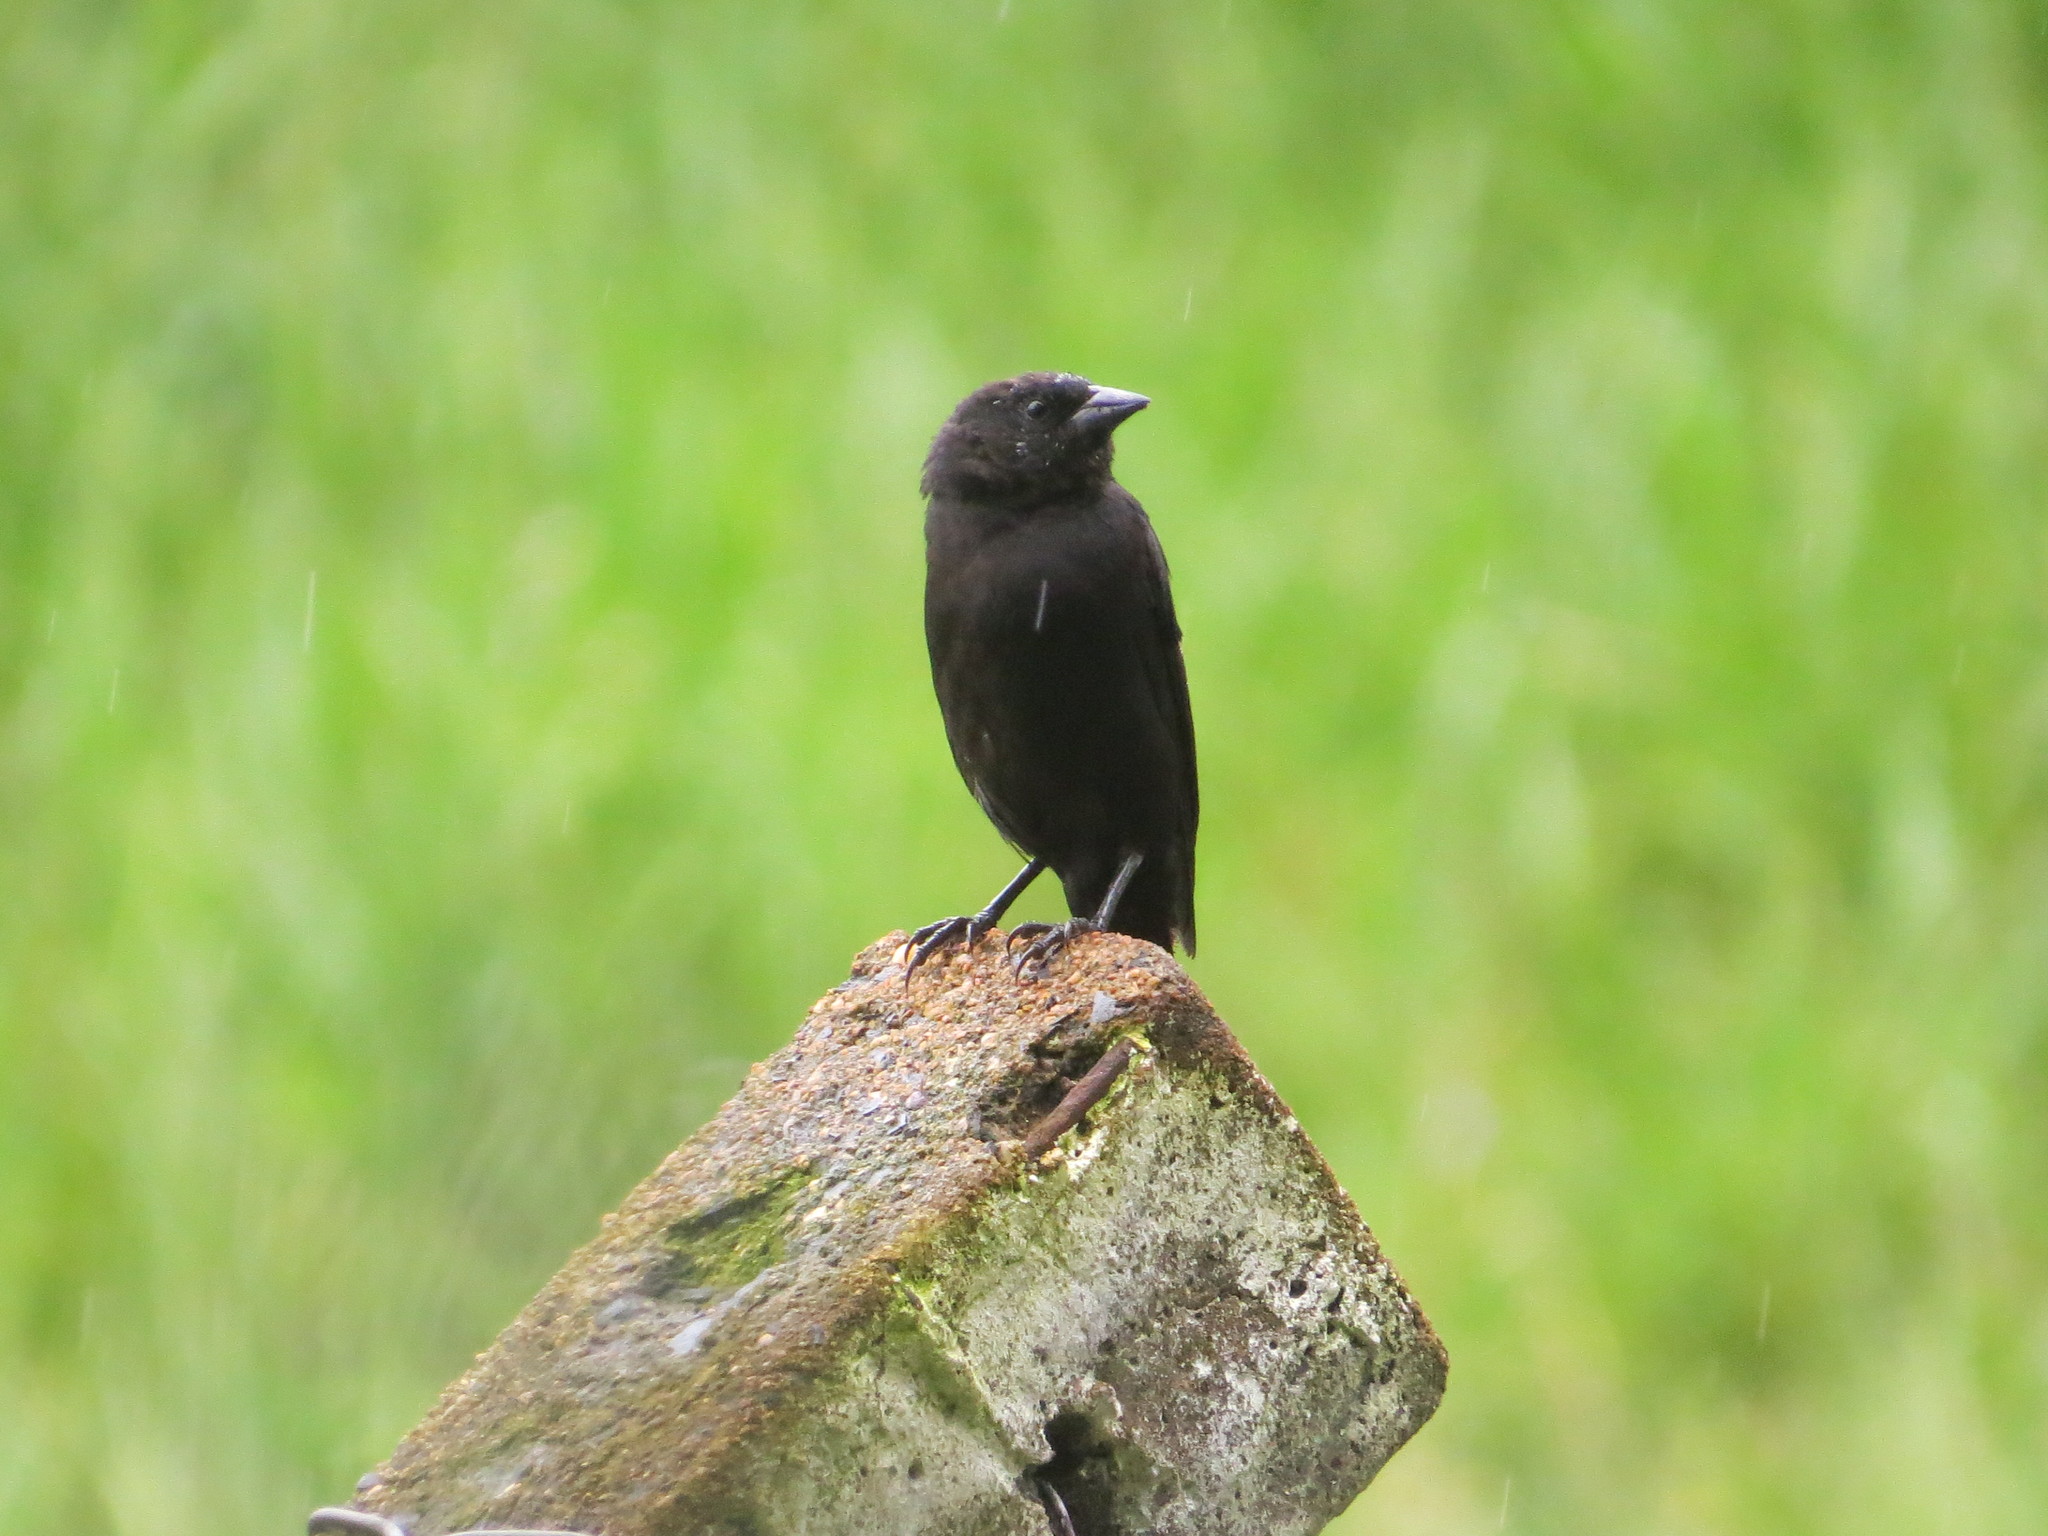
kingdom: Animalia
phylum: Chordata
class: Aves
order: Passeriformes
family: Icteridae
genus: Molothrus
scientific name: Molothrus bonariensis
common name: Shiny cowbird
